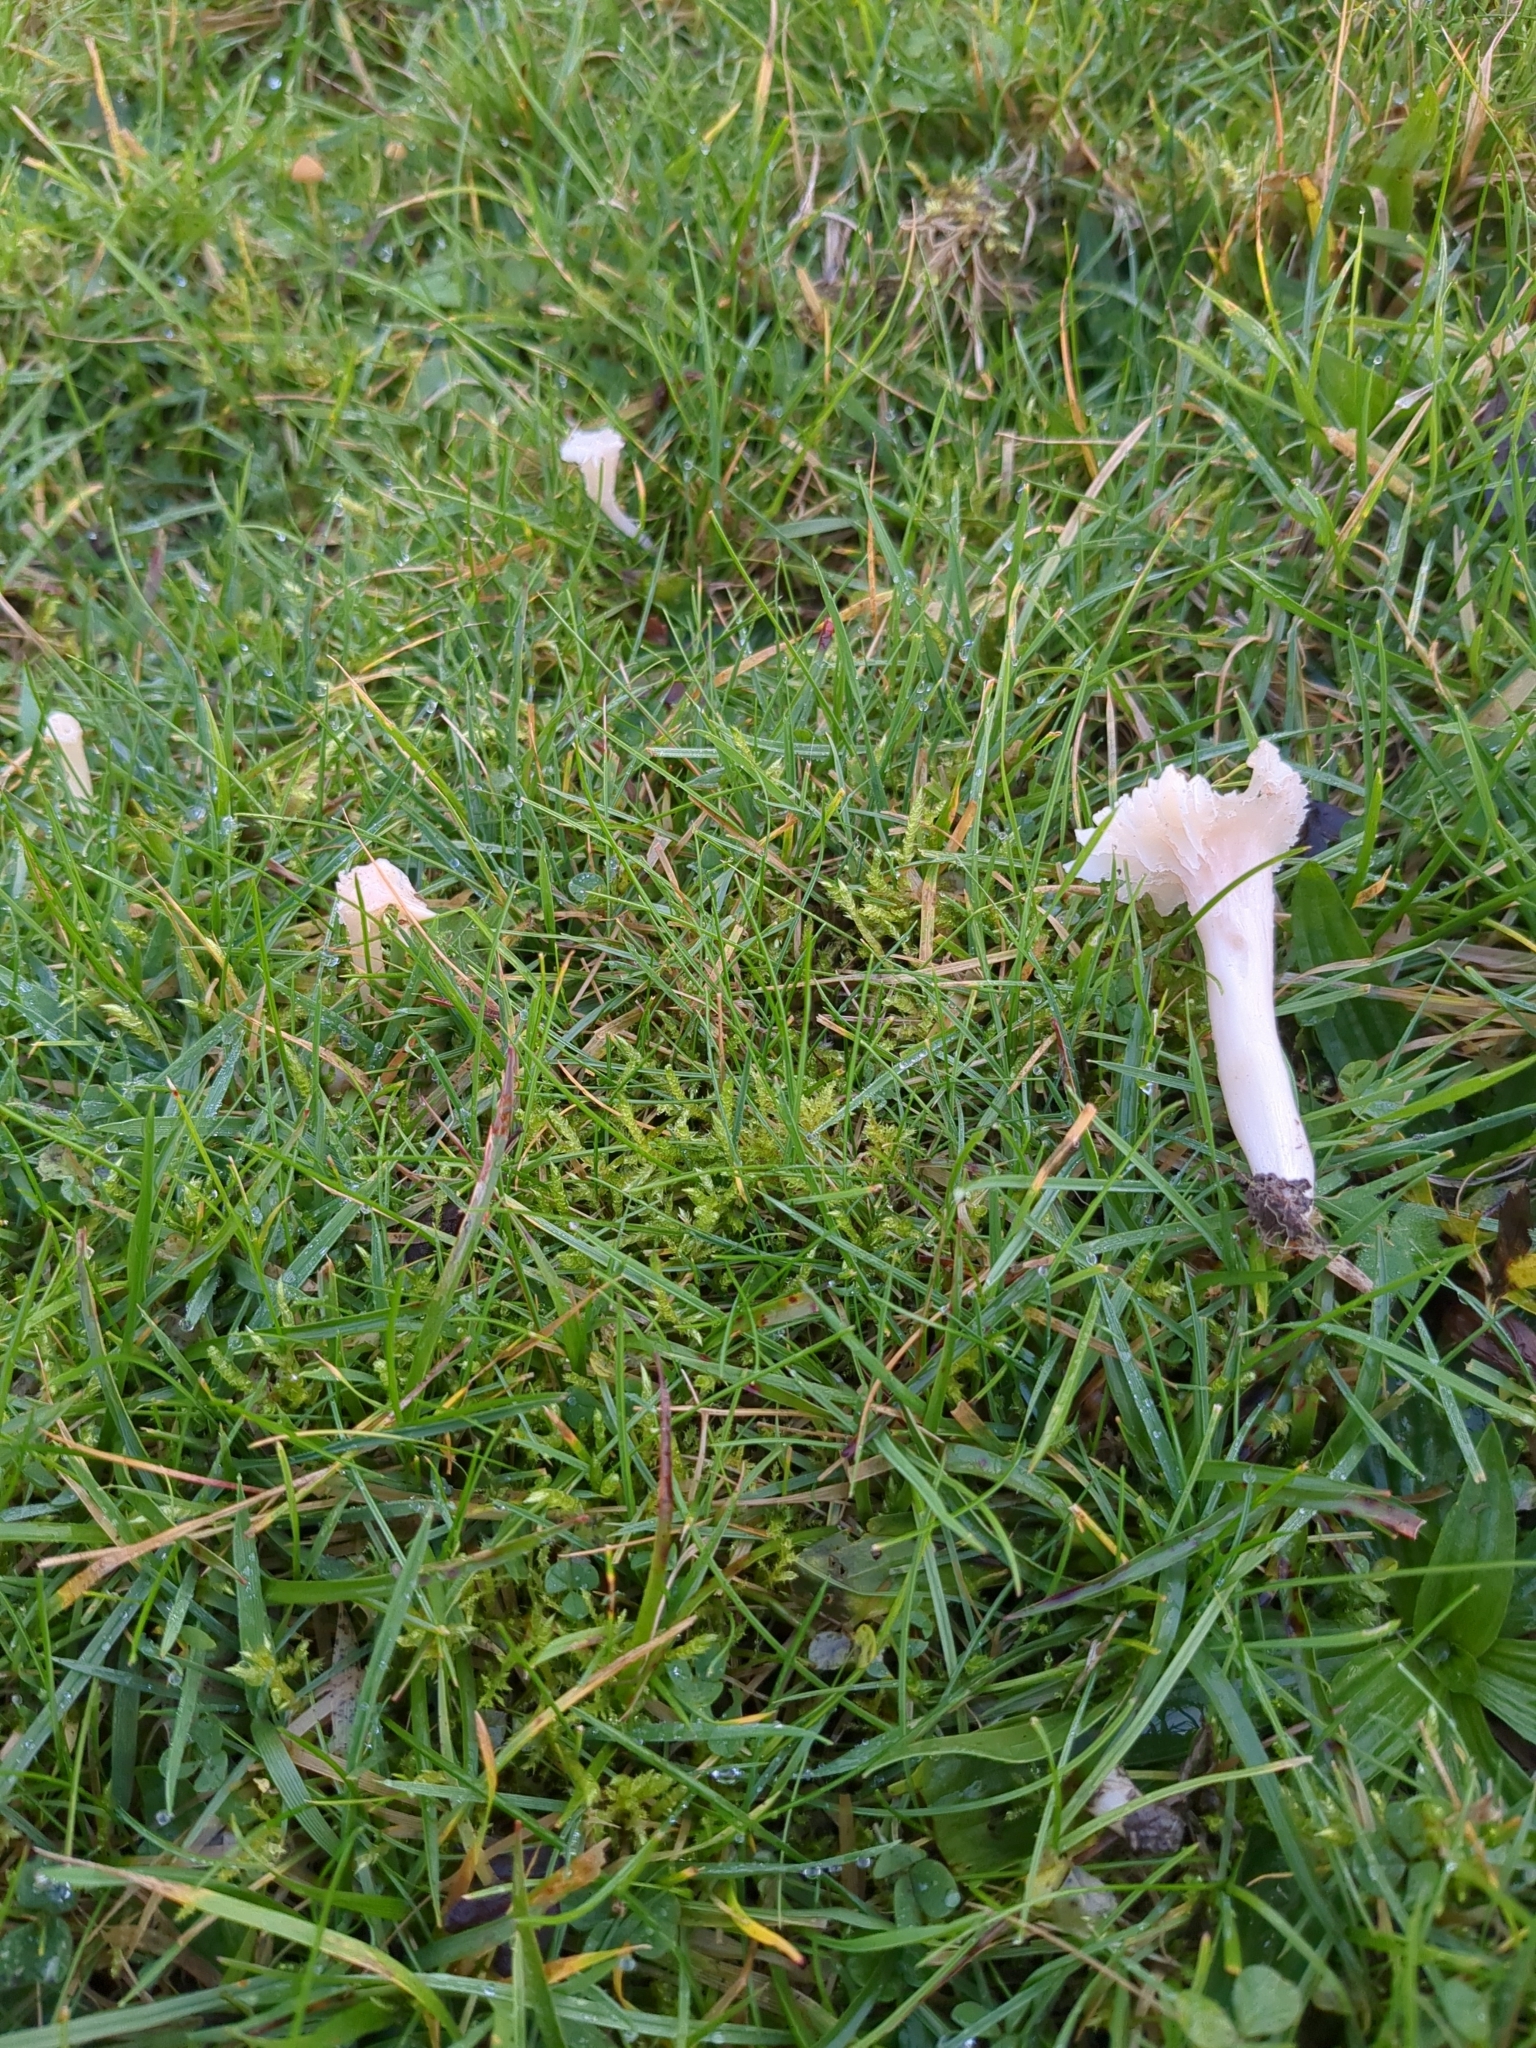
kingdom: Fungi
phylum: Basidiomycota
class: Agaricomycetes
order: Agaricales
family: Hygrophoraceae
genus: Cuphophyllus
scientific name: Cuphophyllus virgineus
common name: Snowy waxcap
